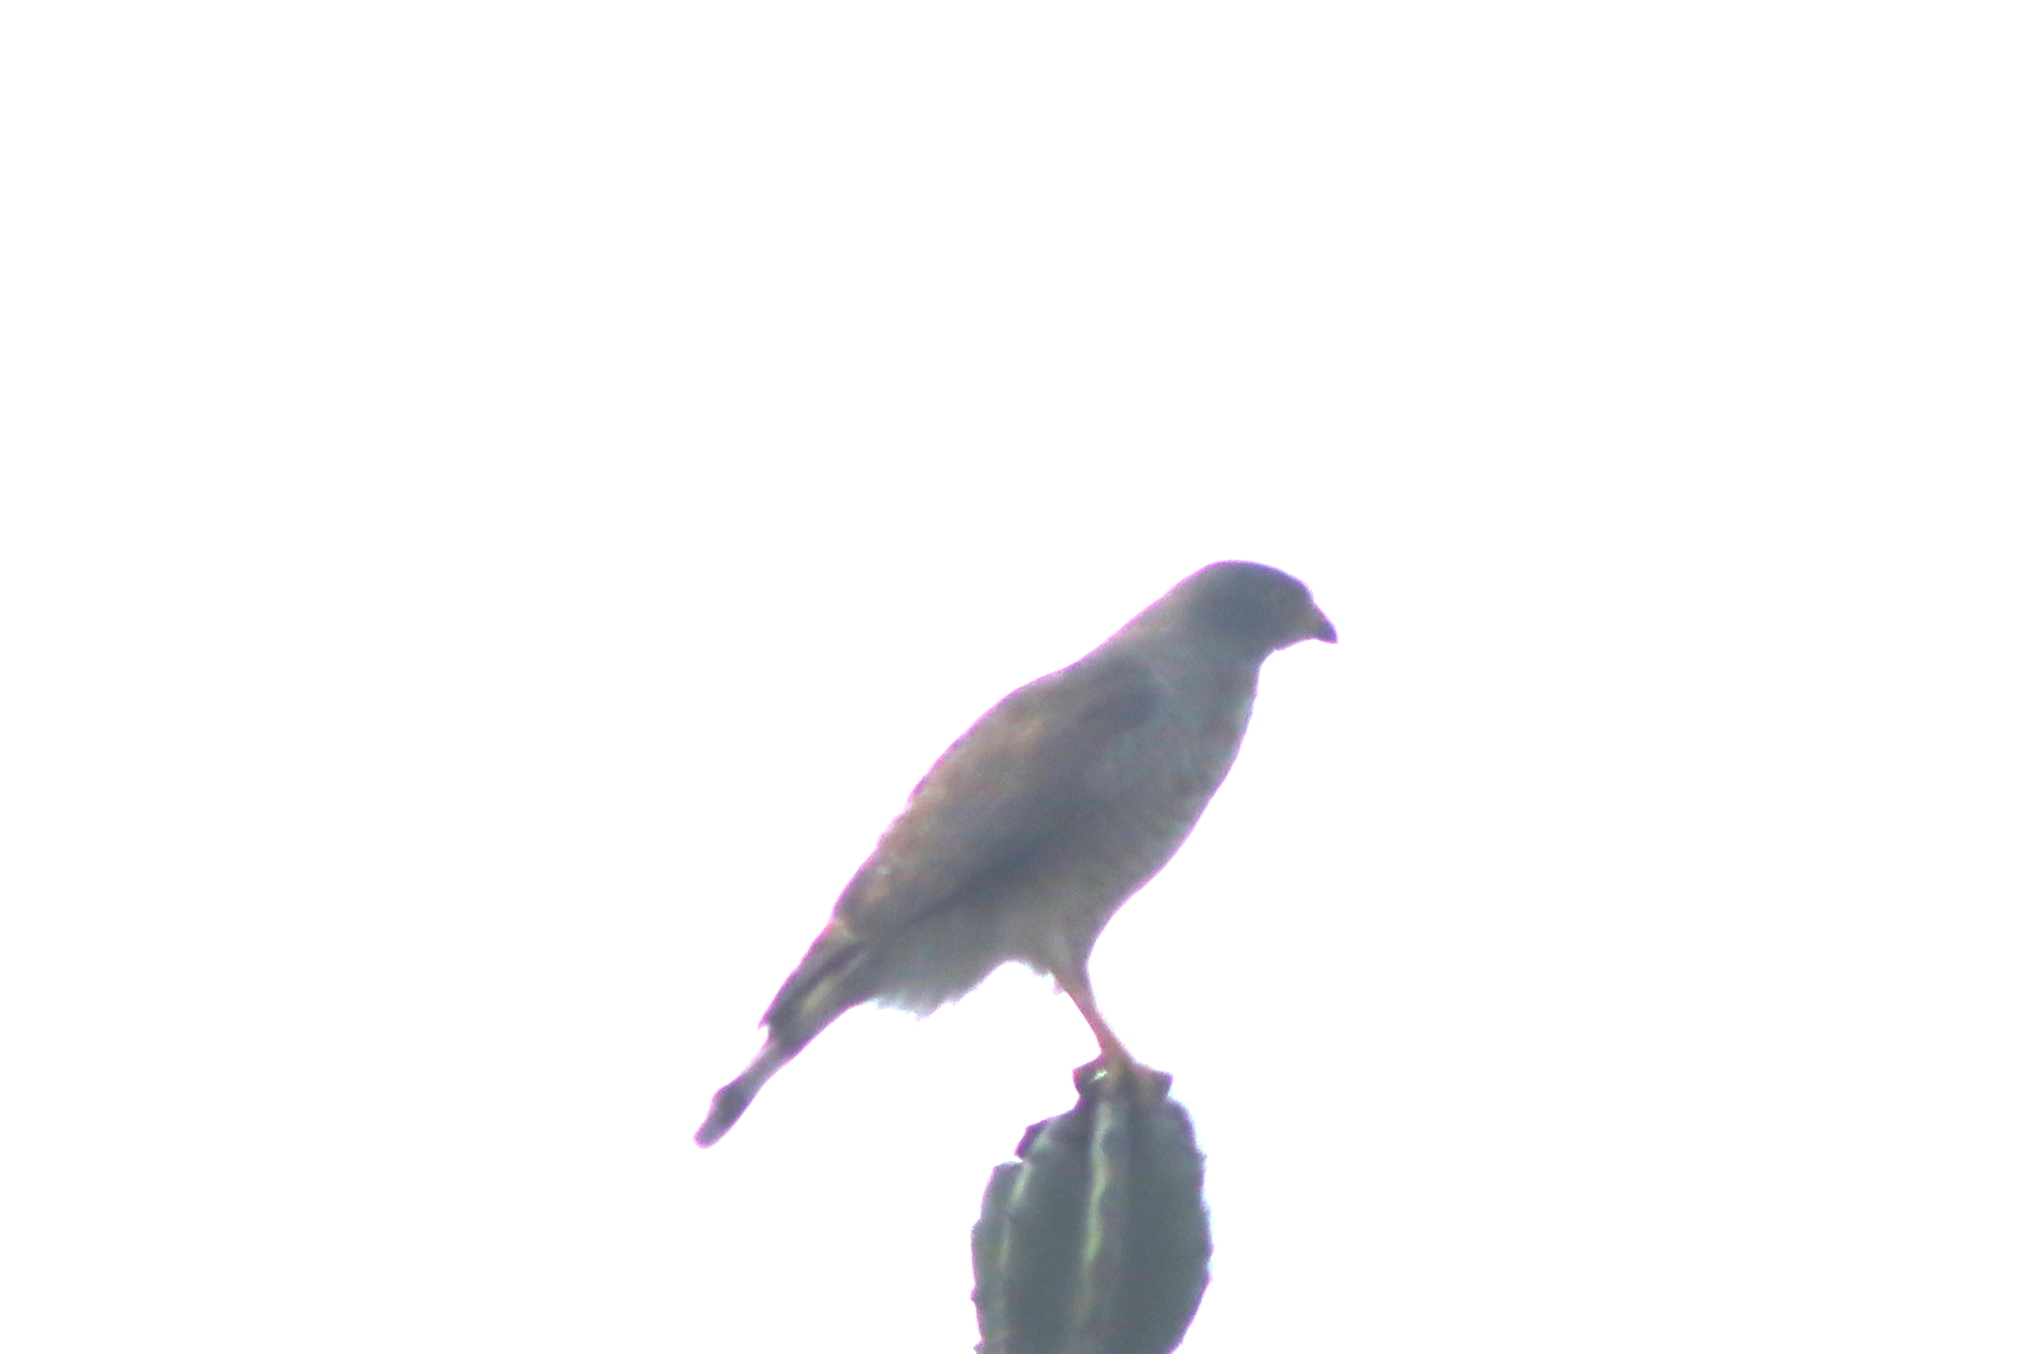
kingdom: Animalia
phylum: Chordata
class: Aves
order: Accipitriformes
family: Accipitridae
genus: Rupornis
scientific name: Rupornis magnirostris
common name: Roadside hawk
